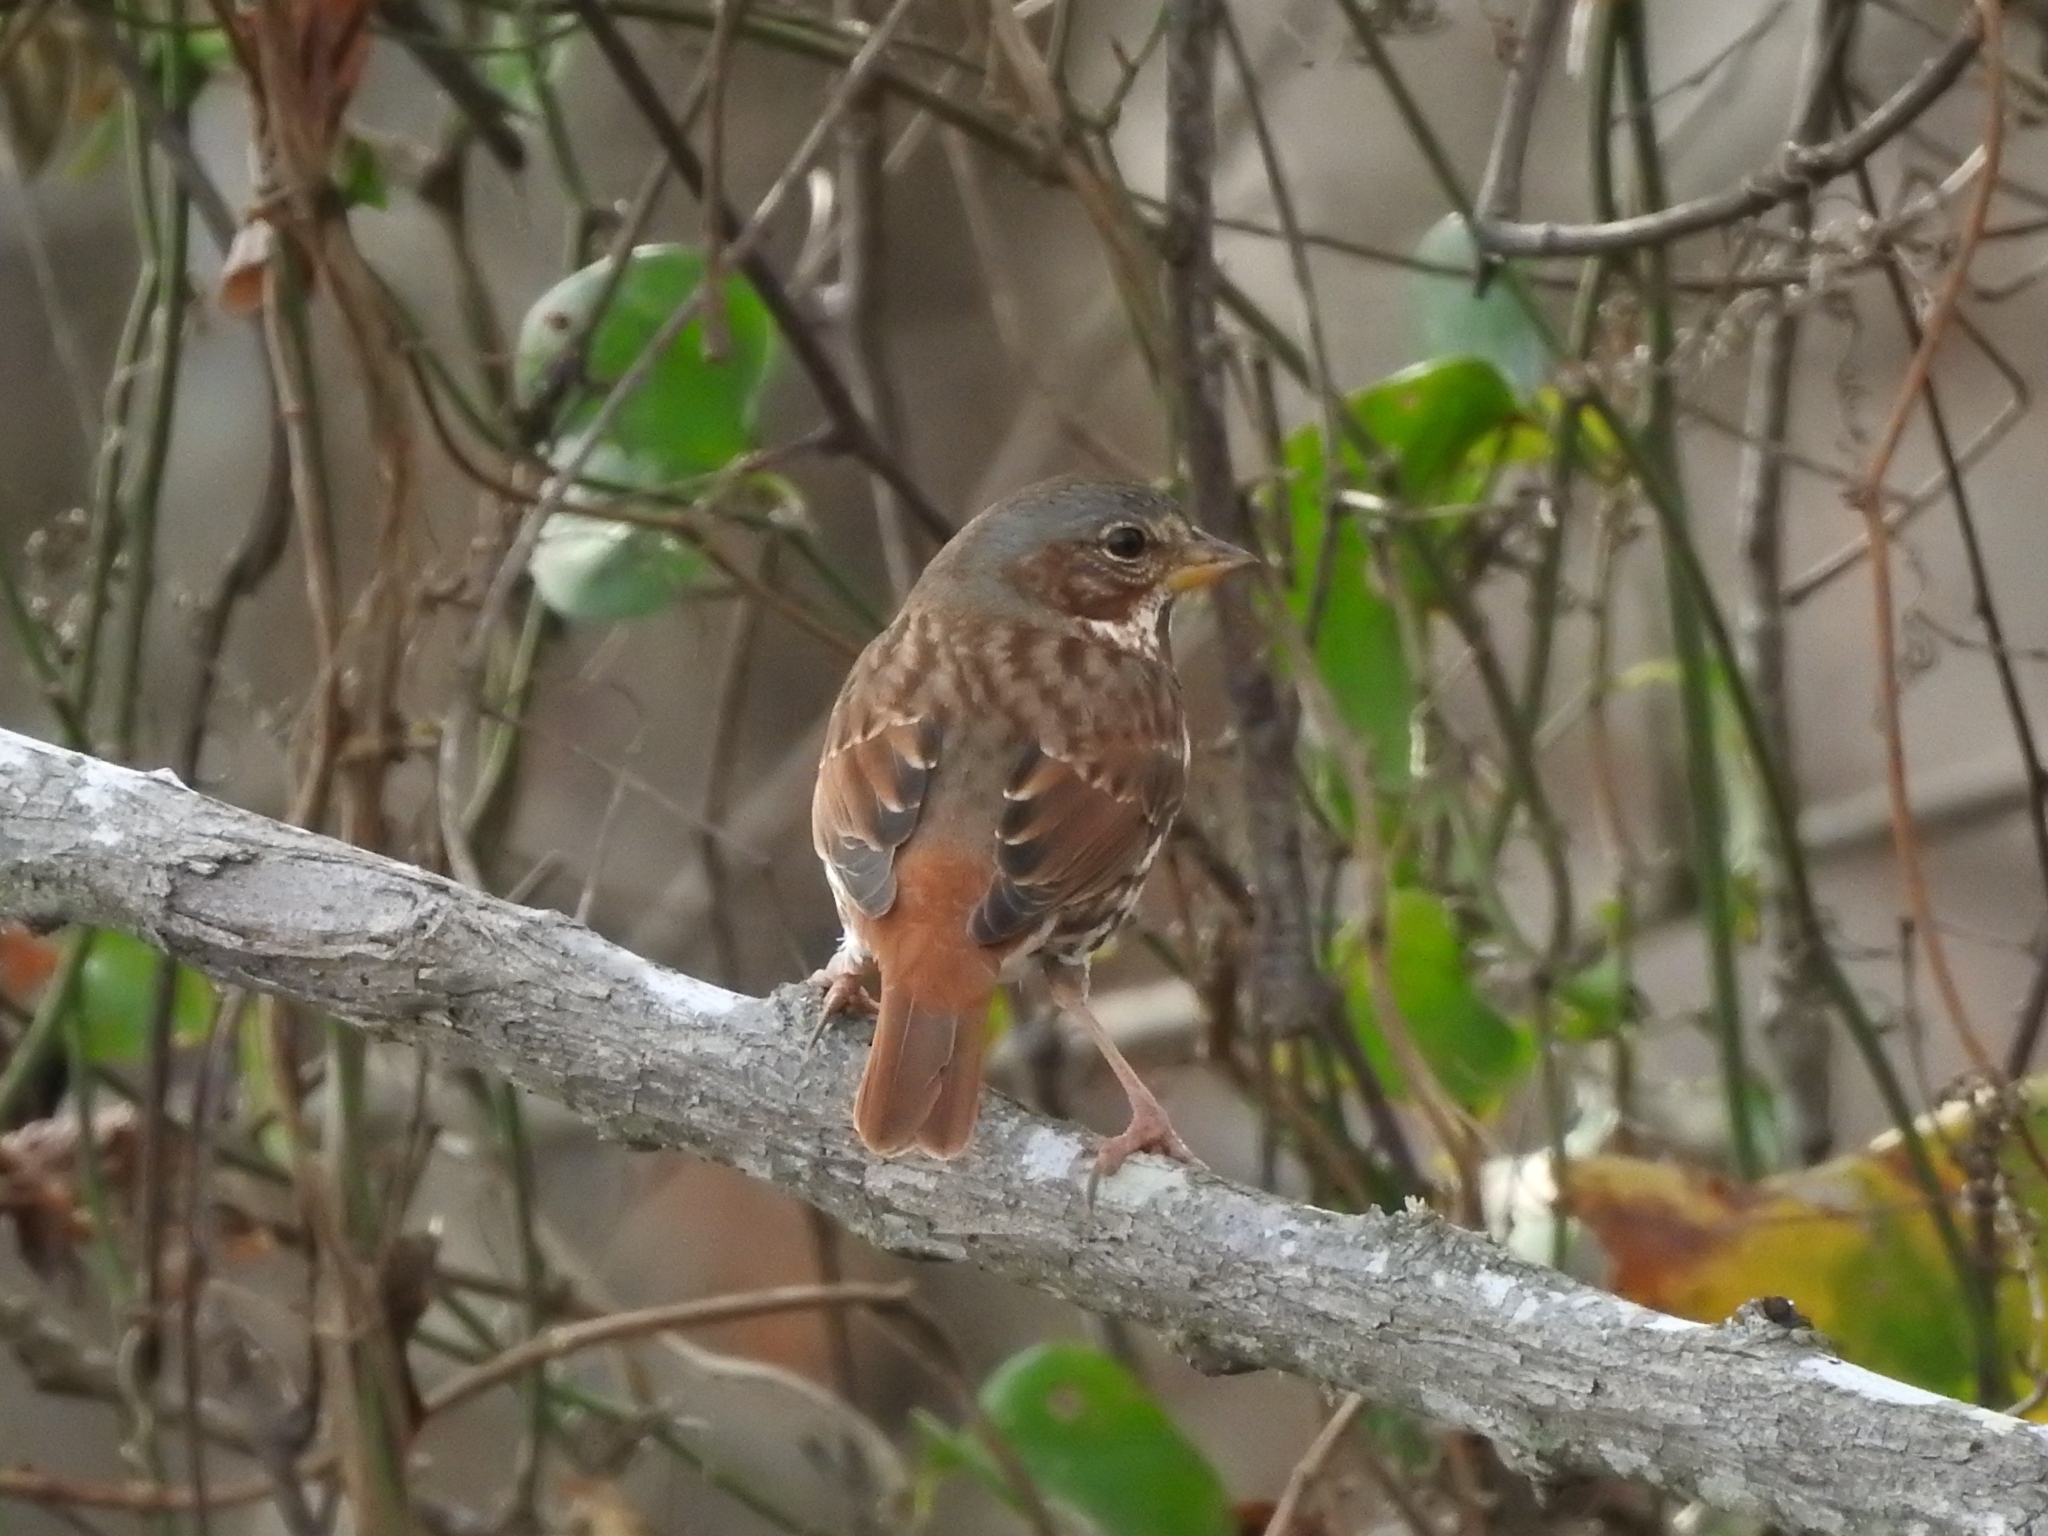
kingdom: Animalia
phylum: Chordata
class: Aves
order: Passeriformes
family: Passerellidae
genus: Passerella
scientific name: Passerella iliaca
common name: Fox sparrow
